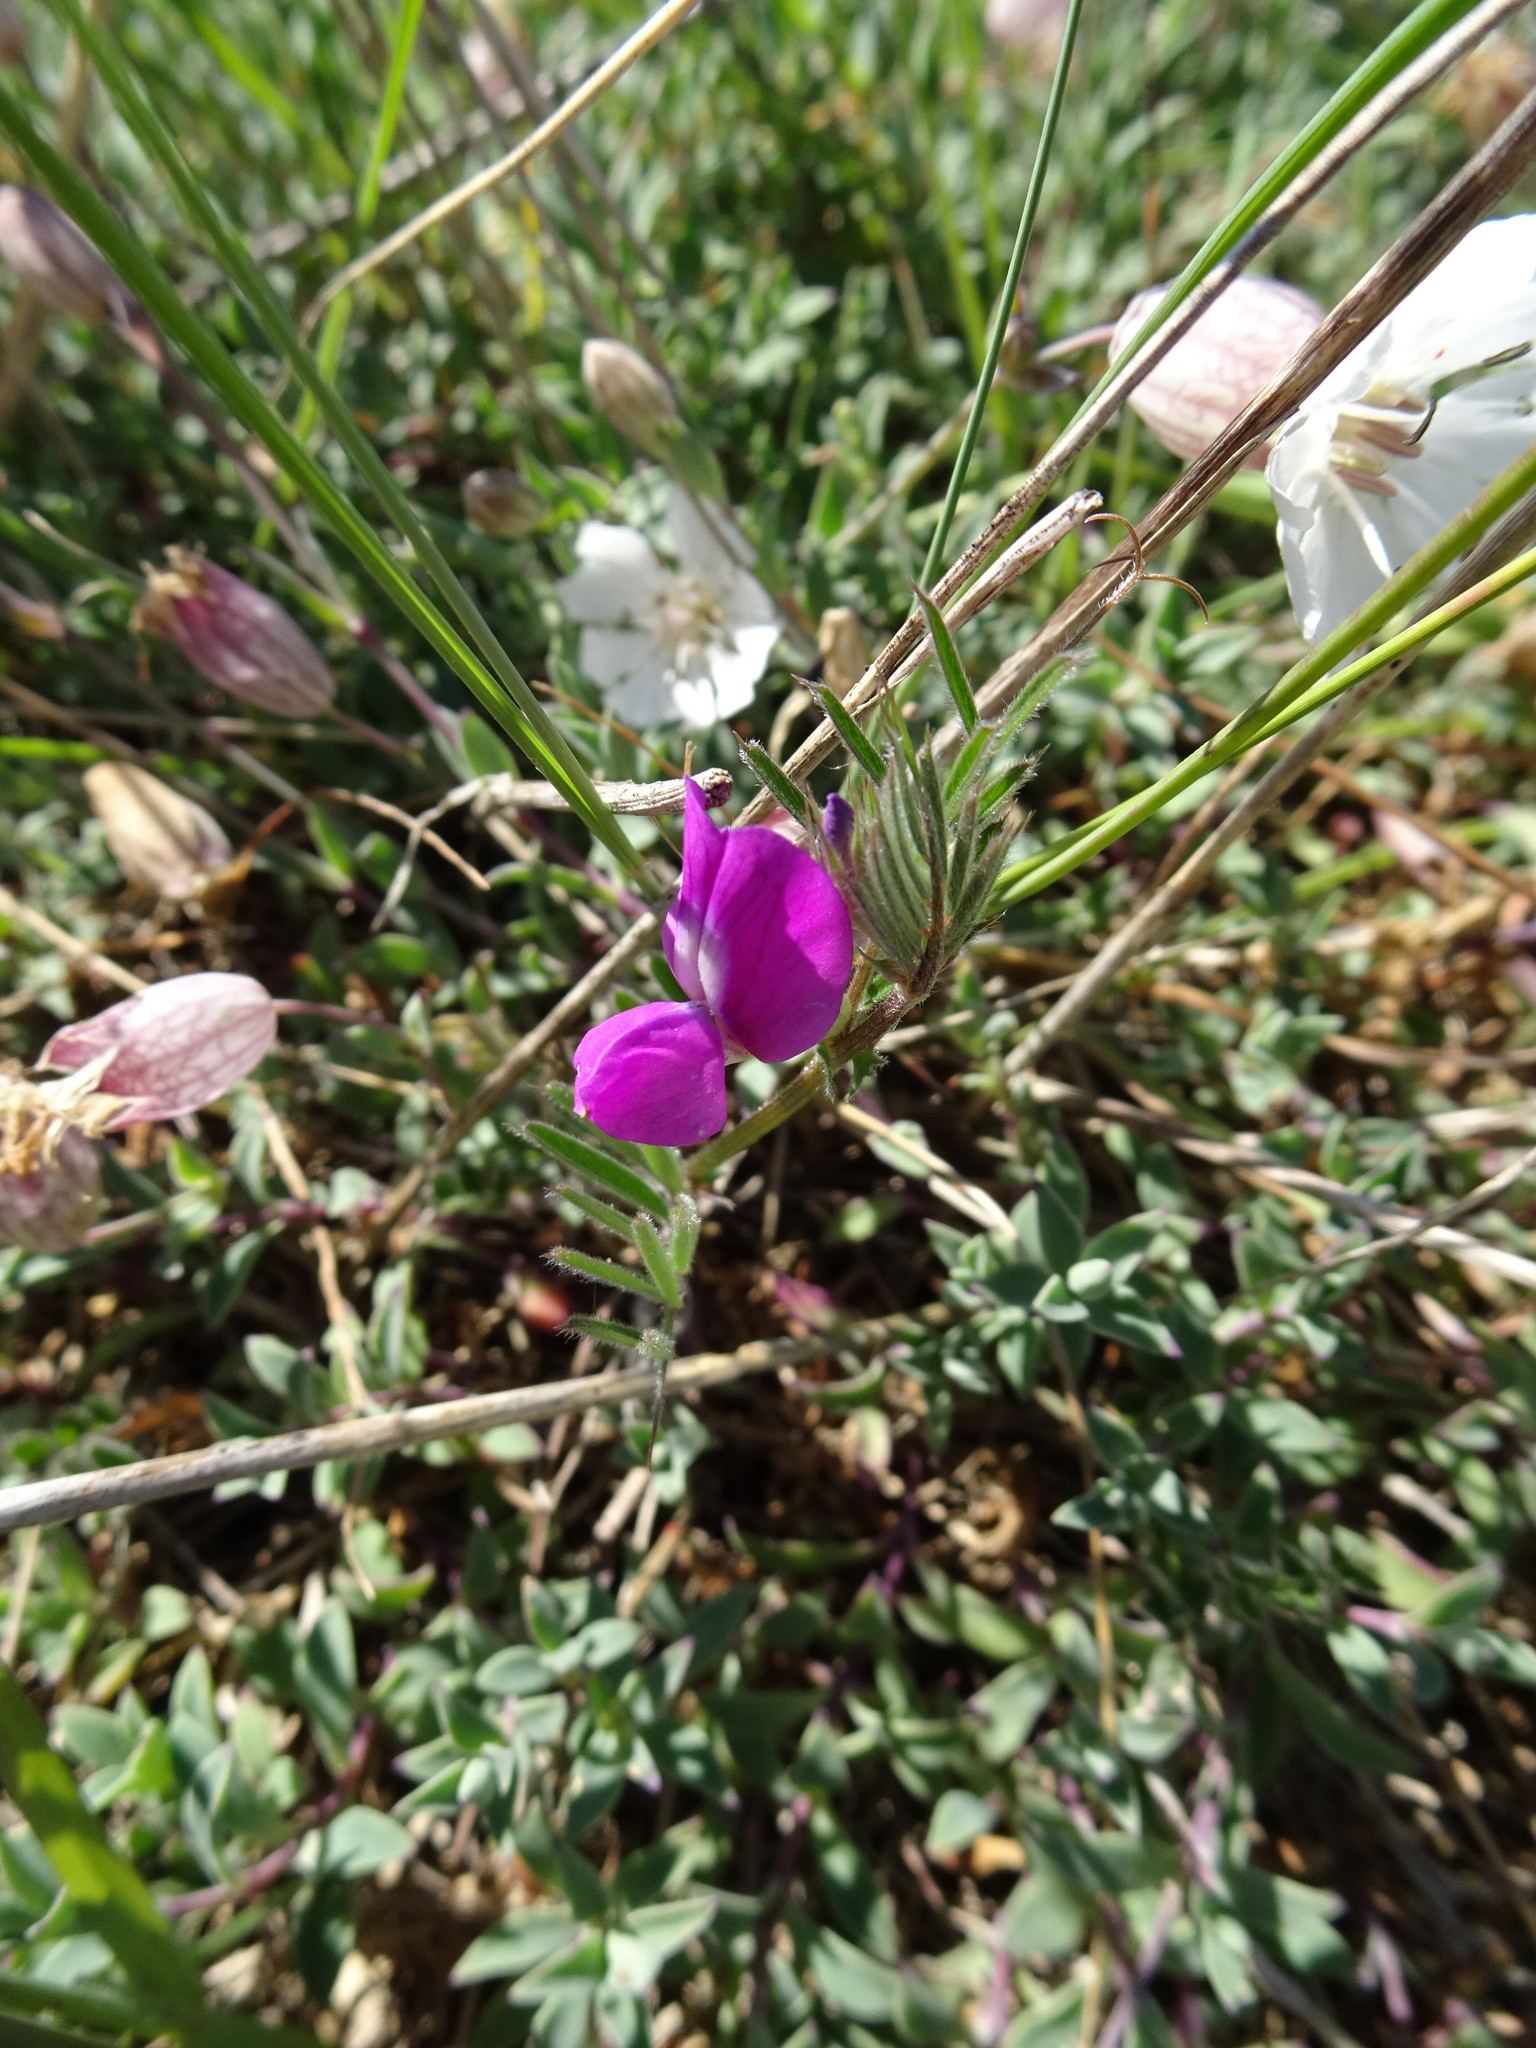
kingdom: Plantae
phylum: Tracheophyta
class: Magnoliopsida
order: Fabales
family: Fabaceae
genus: Vicia
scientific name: Vicia sativa
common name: Garden vetch
